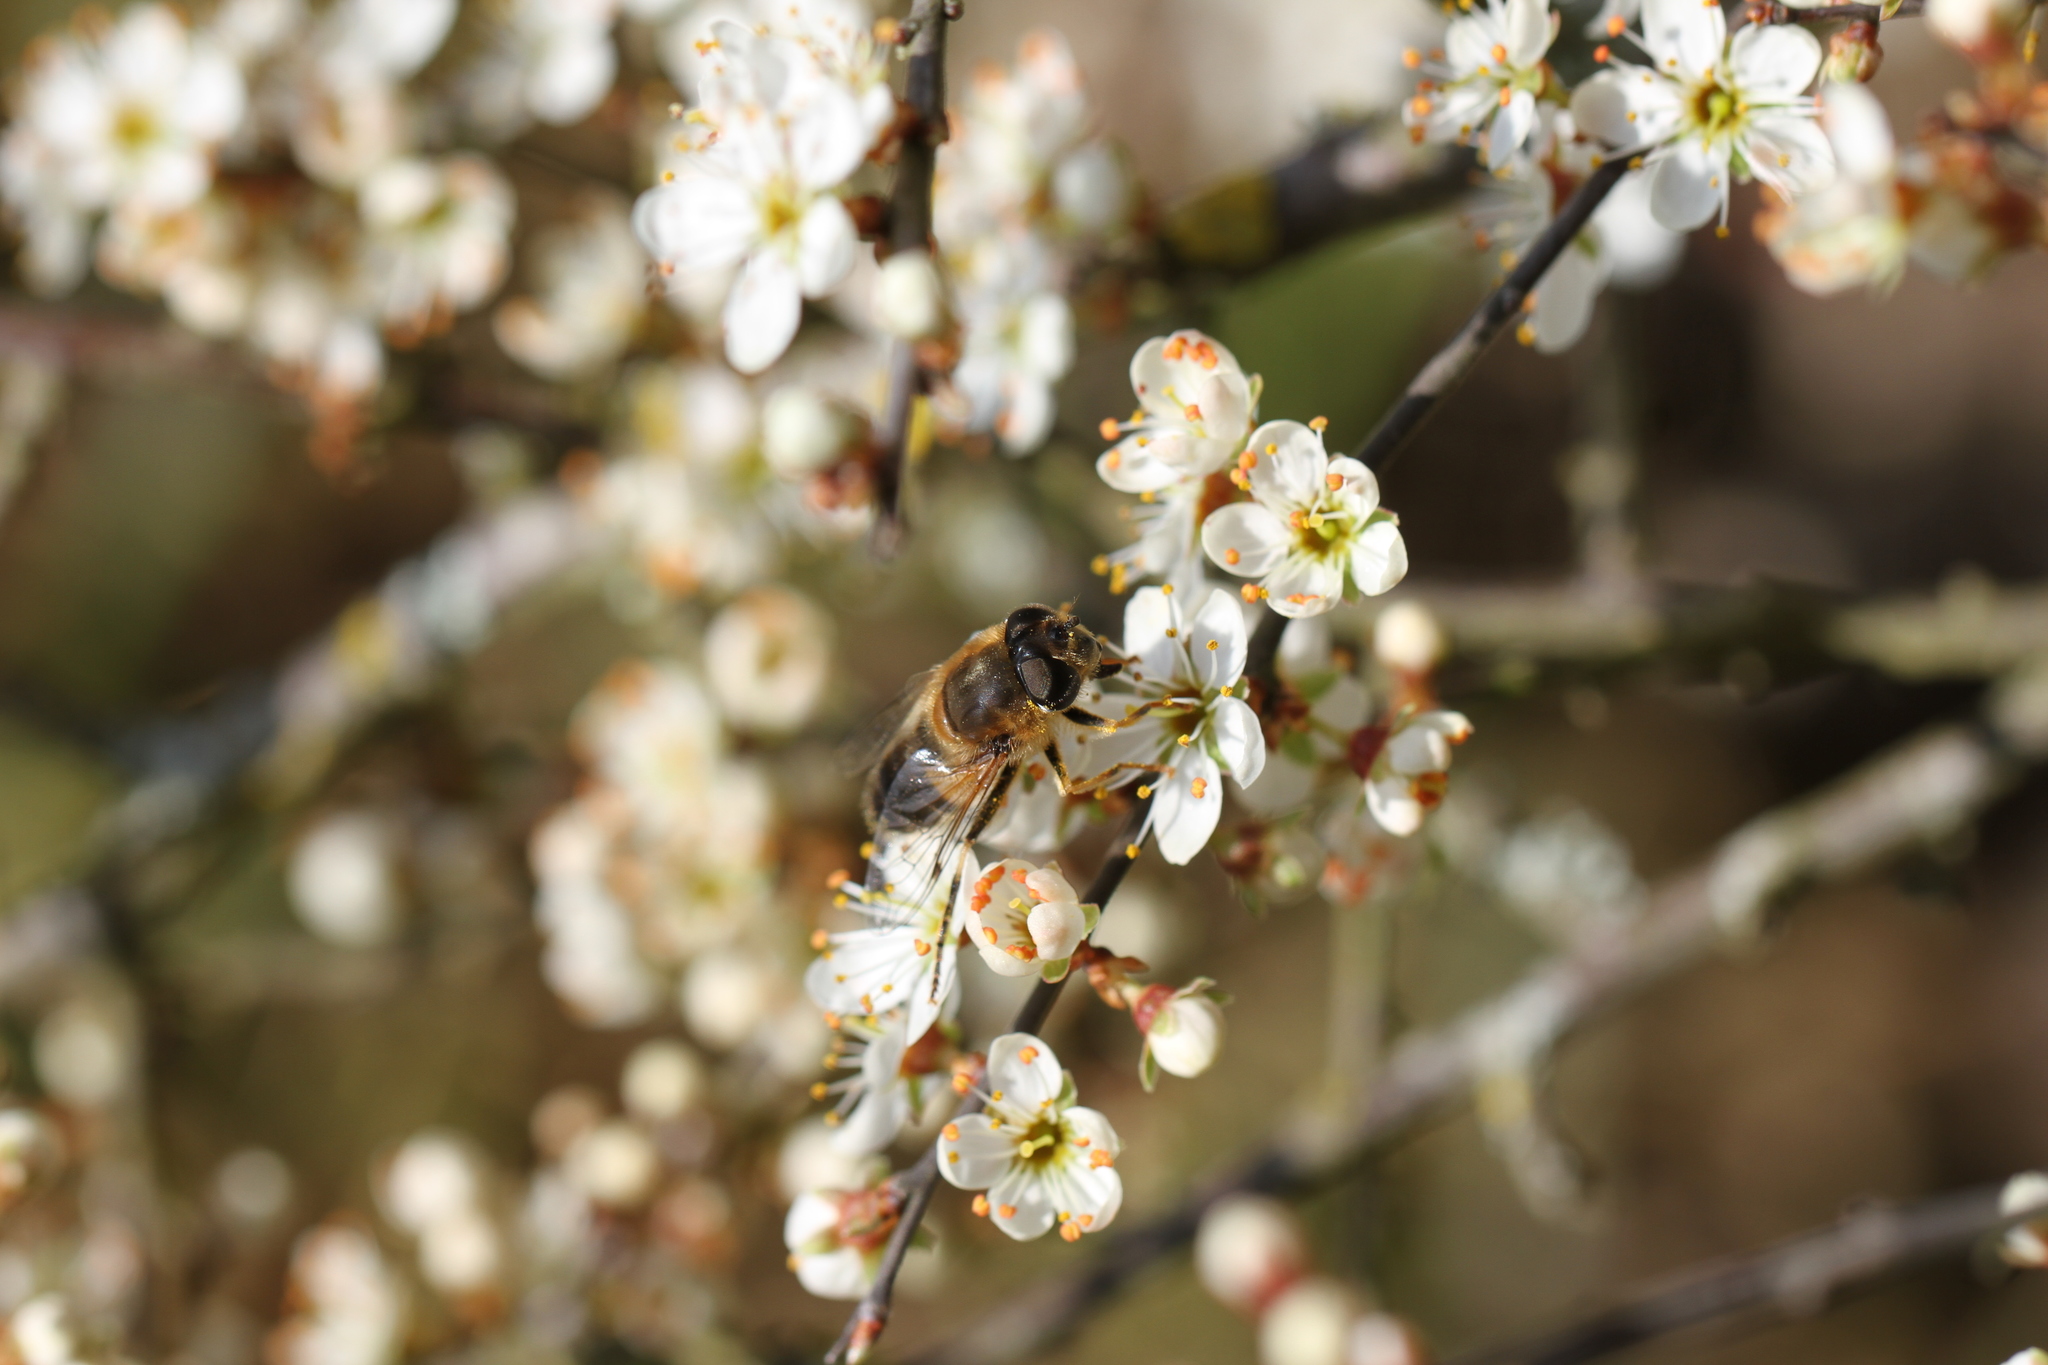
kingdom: Animalia
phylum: Arthropoda
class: Insecta
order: Diptera
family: Syrphidae
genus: Eristalis
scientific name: Eristalis pertinax
